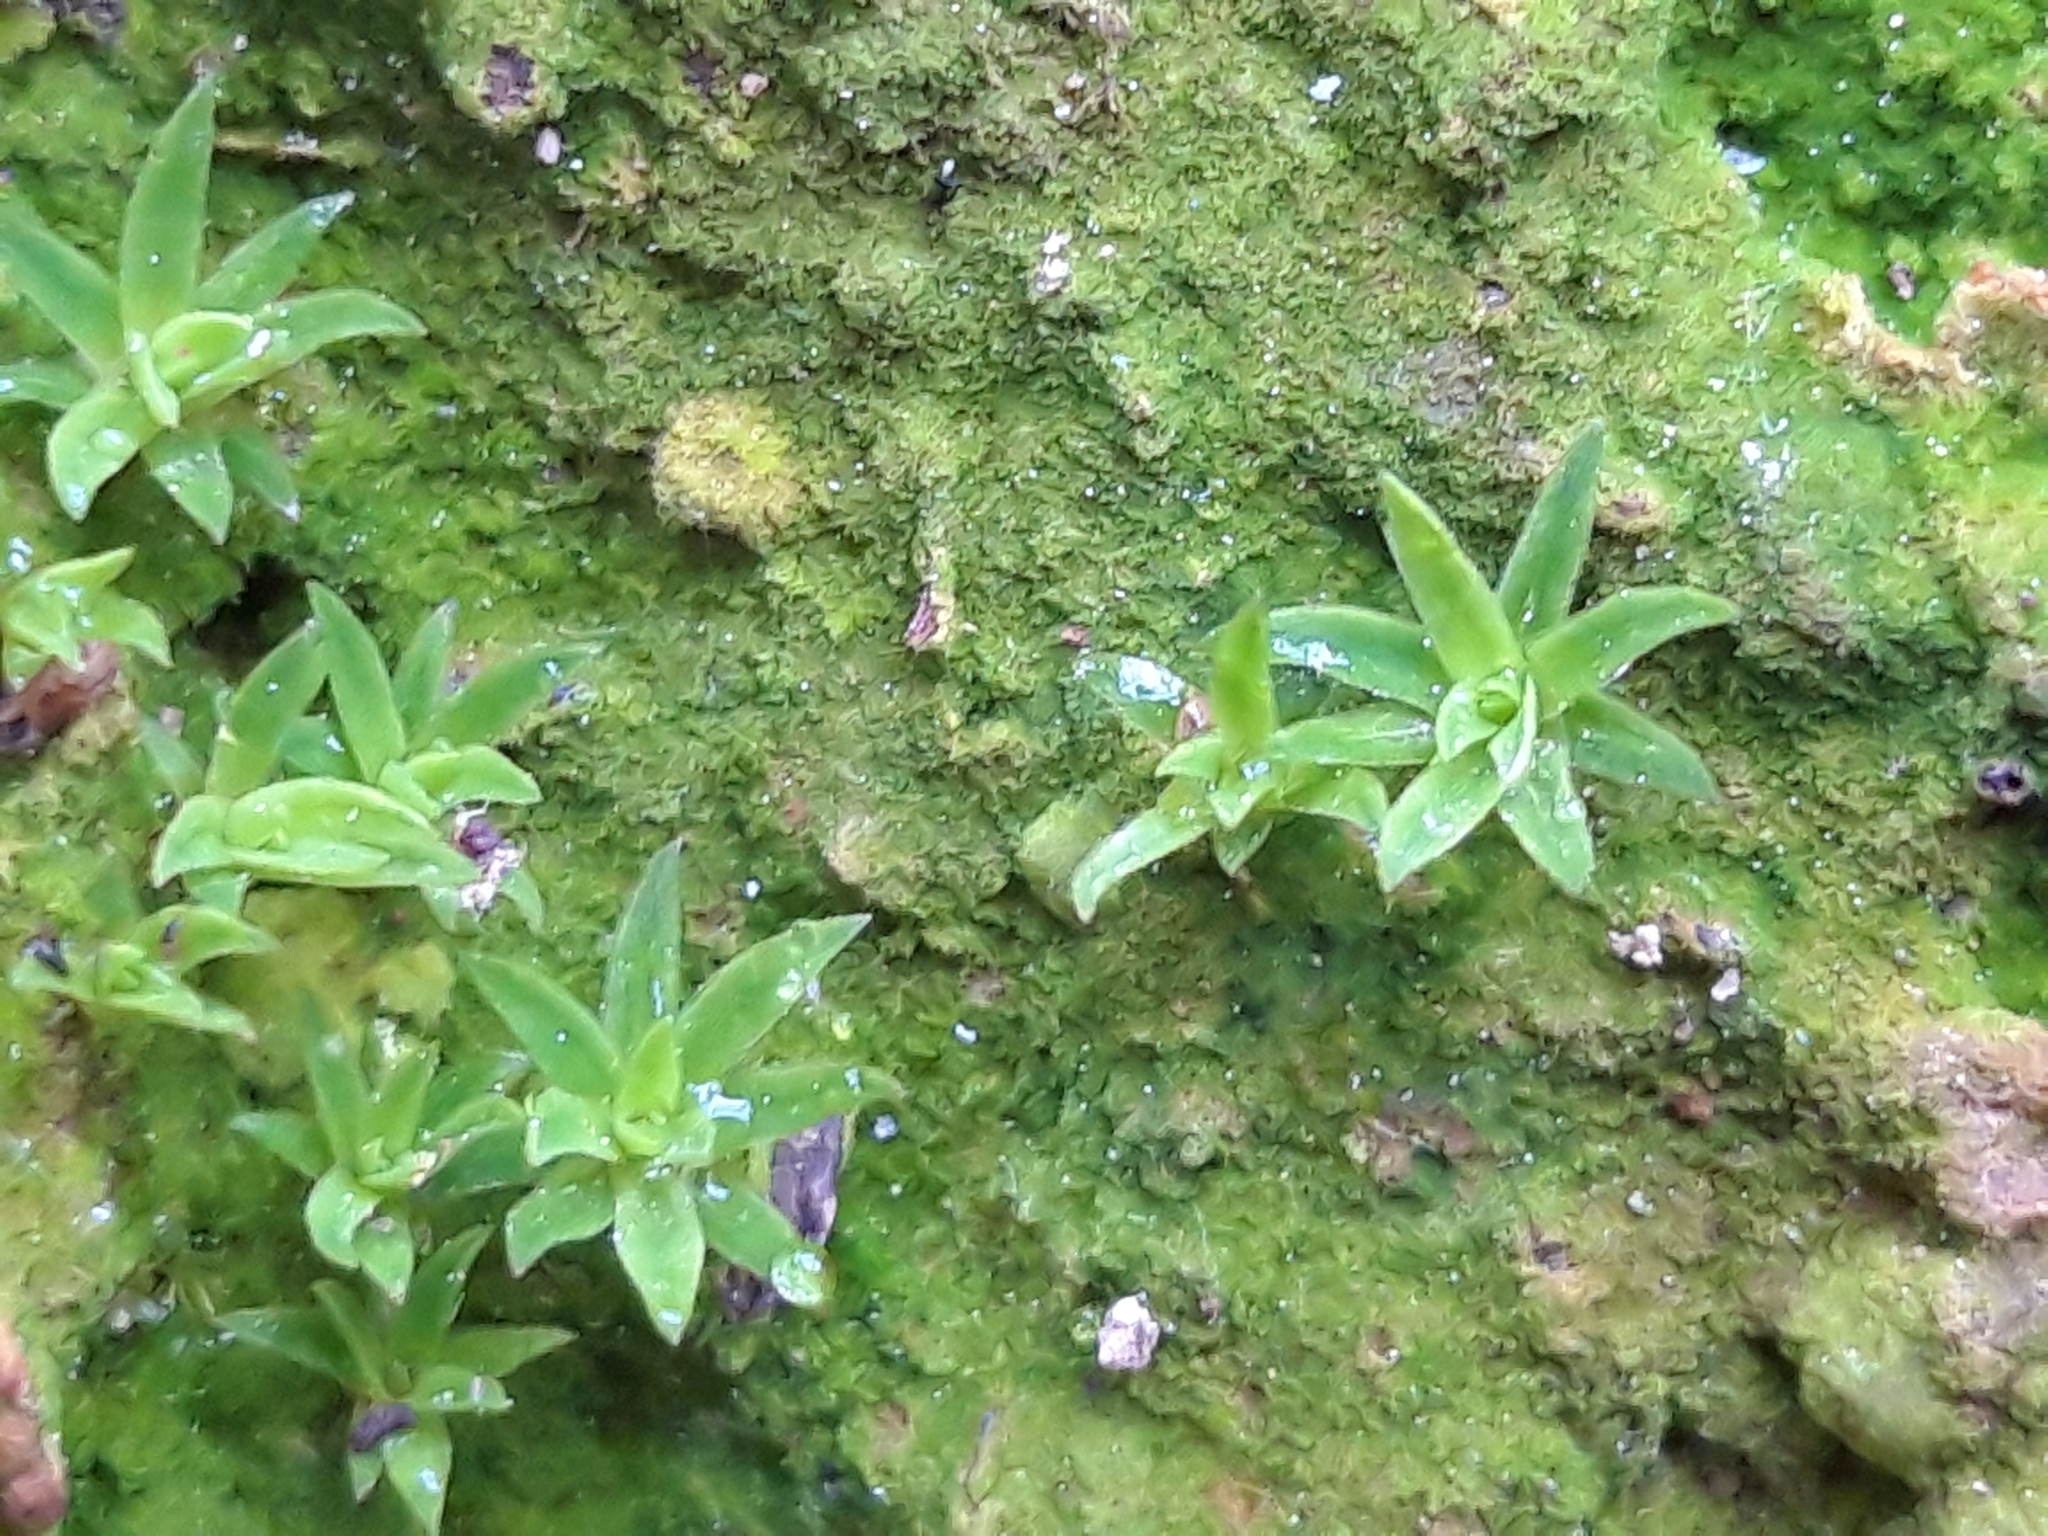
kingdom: Plantae
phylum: Bryophyta
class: Polytrichopsida
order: Polytrichales
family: Polytrichaceae
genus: Pogonatum
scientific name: Pogonatum aloides
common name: Aloe haircap
